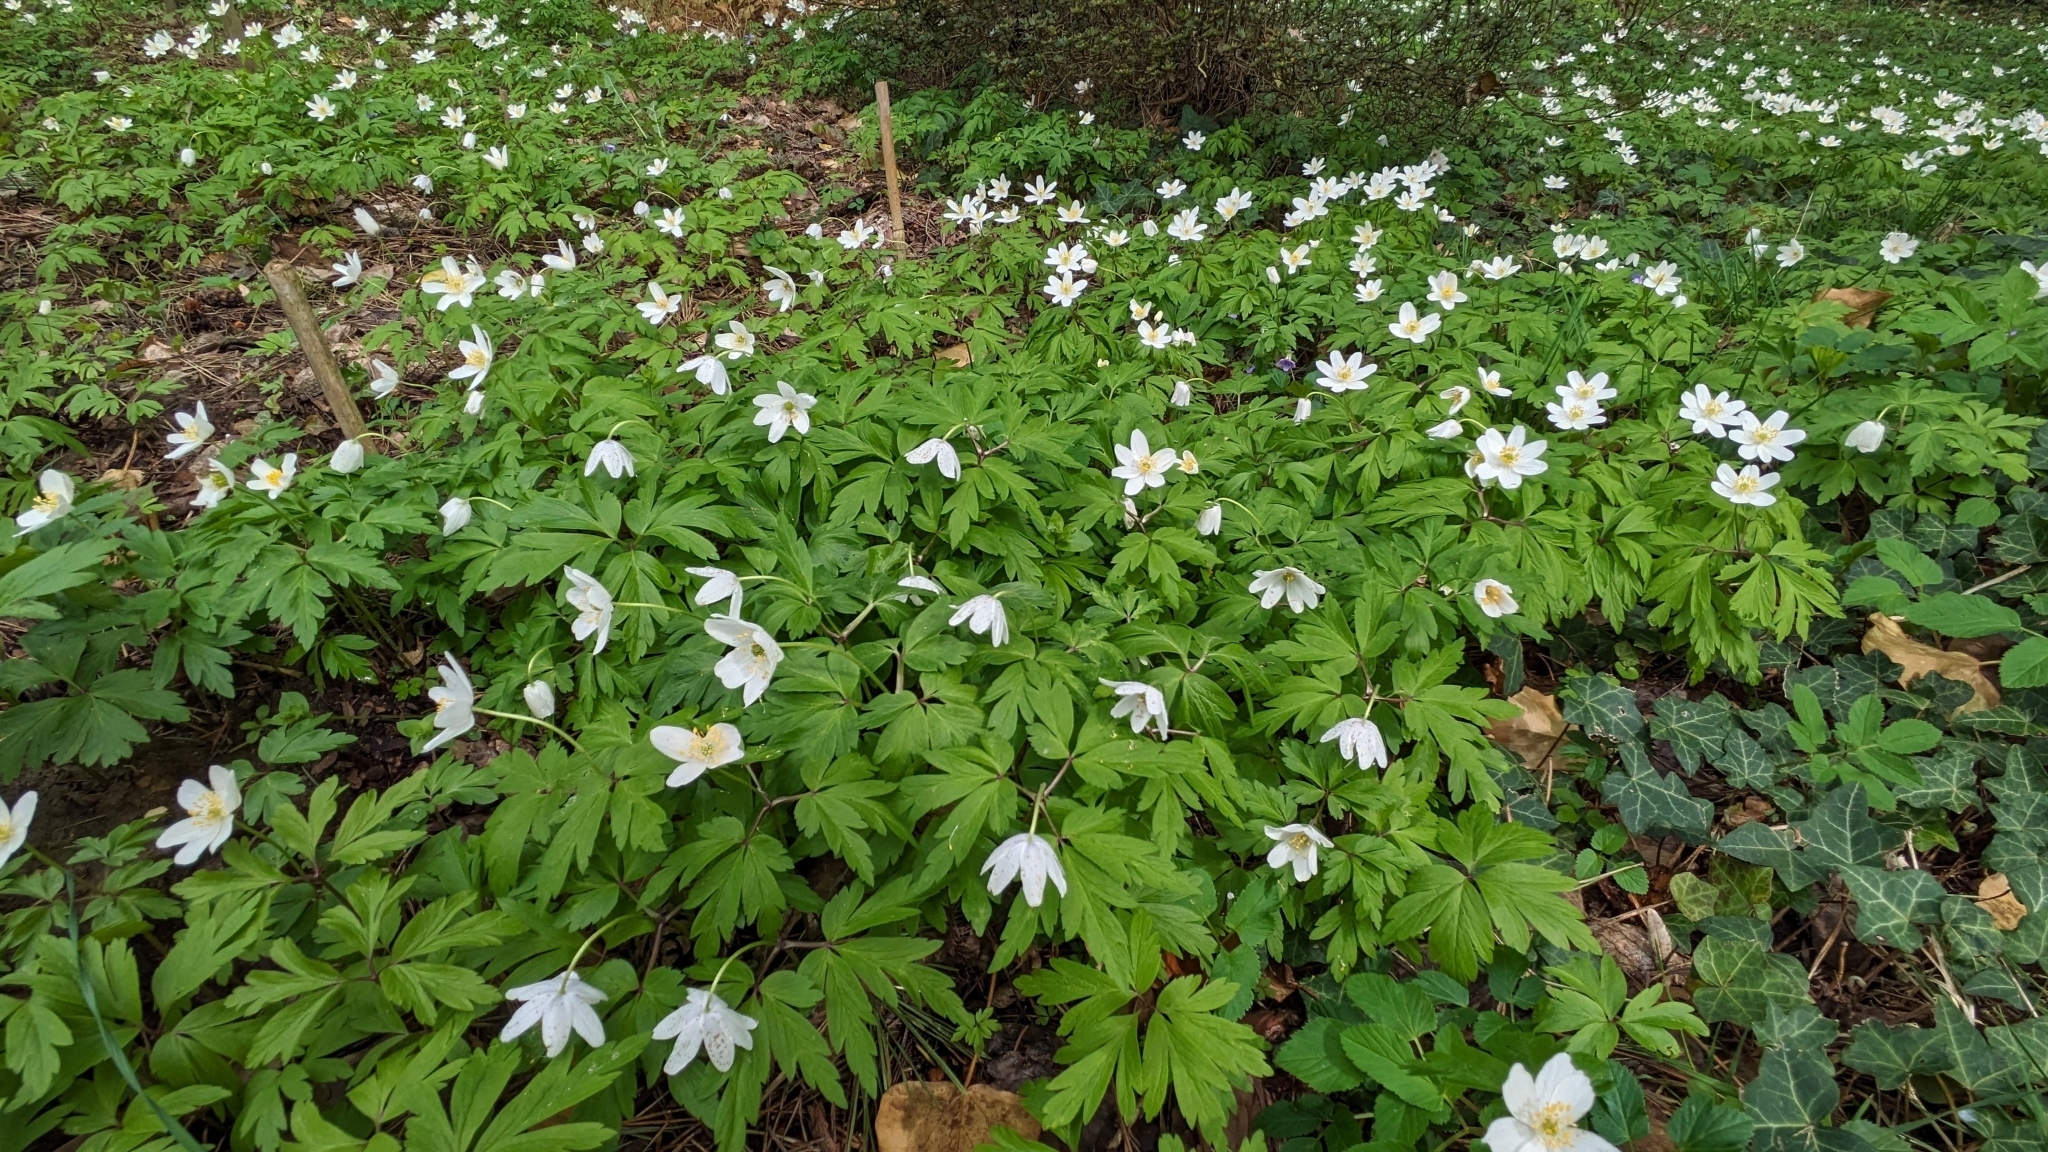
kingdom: Plantae
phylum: Tracheophyta
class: Magnoliopsida
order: Ranunculales
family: Ranunculaceae
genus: Anemone
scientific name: Anemone nemorosa
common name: Wood anemone
